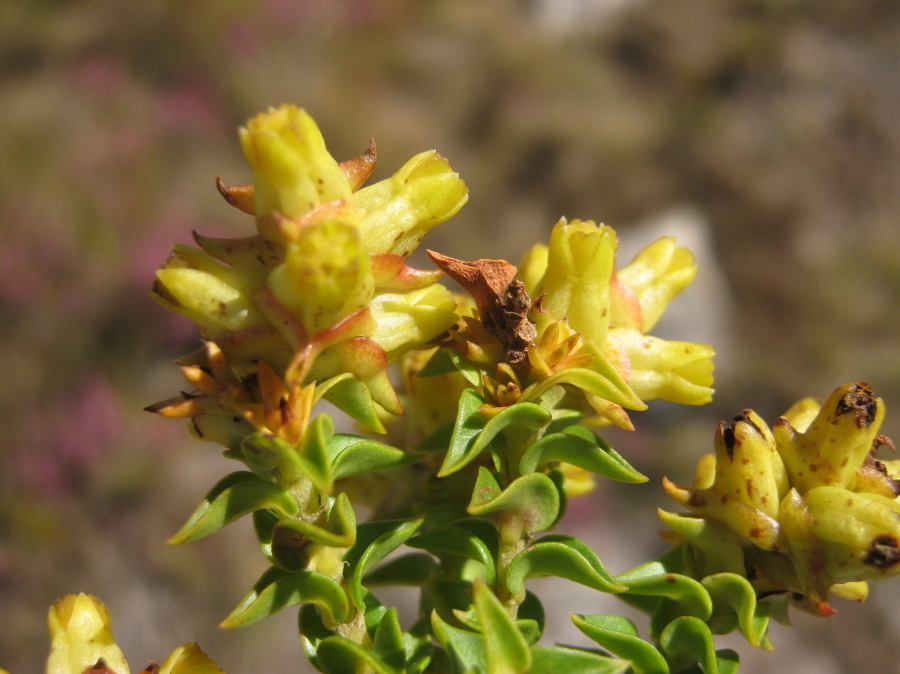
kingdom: Plantae
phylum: Tracheophyta
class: Magnoliopsida
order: Myrtales
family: Penaeaceae
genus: Penaea
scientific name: Penaea mucronata
